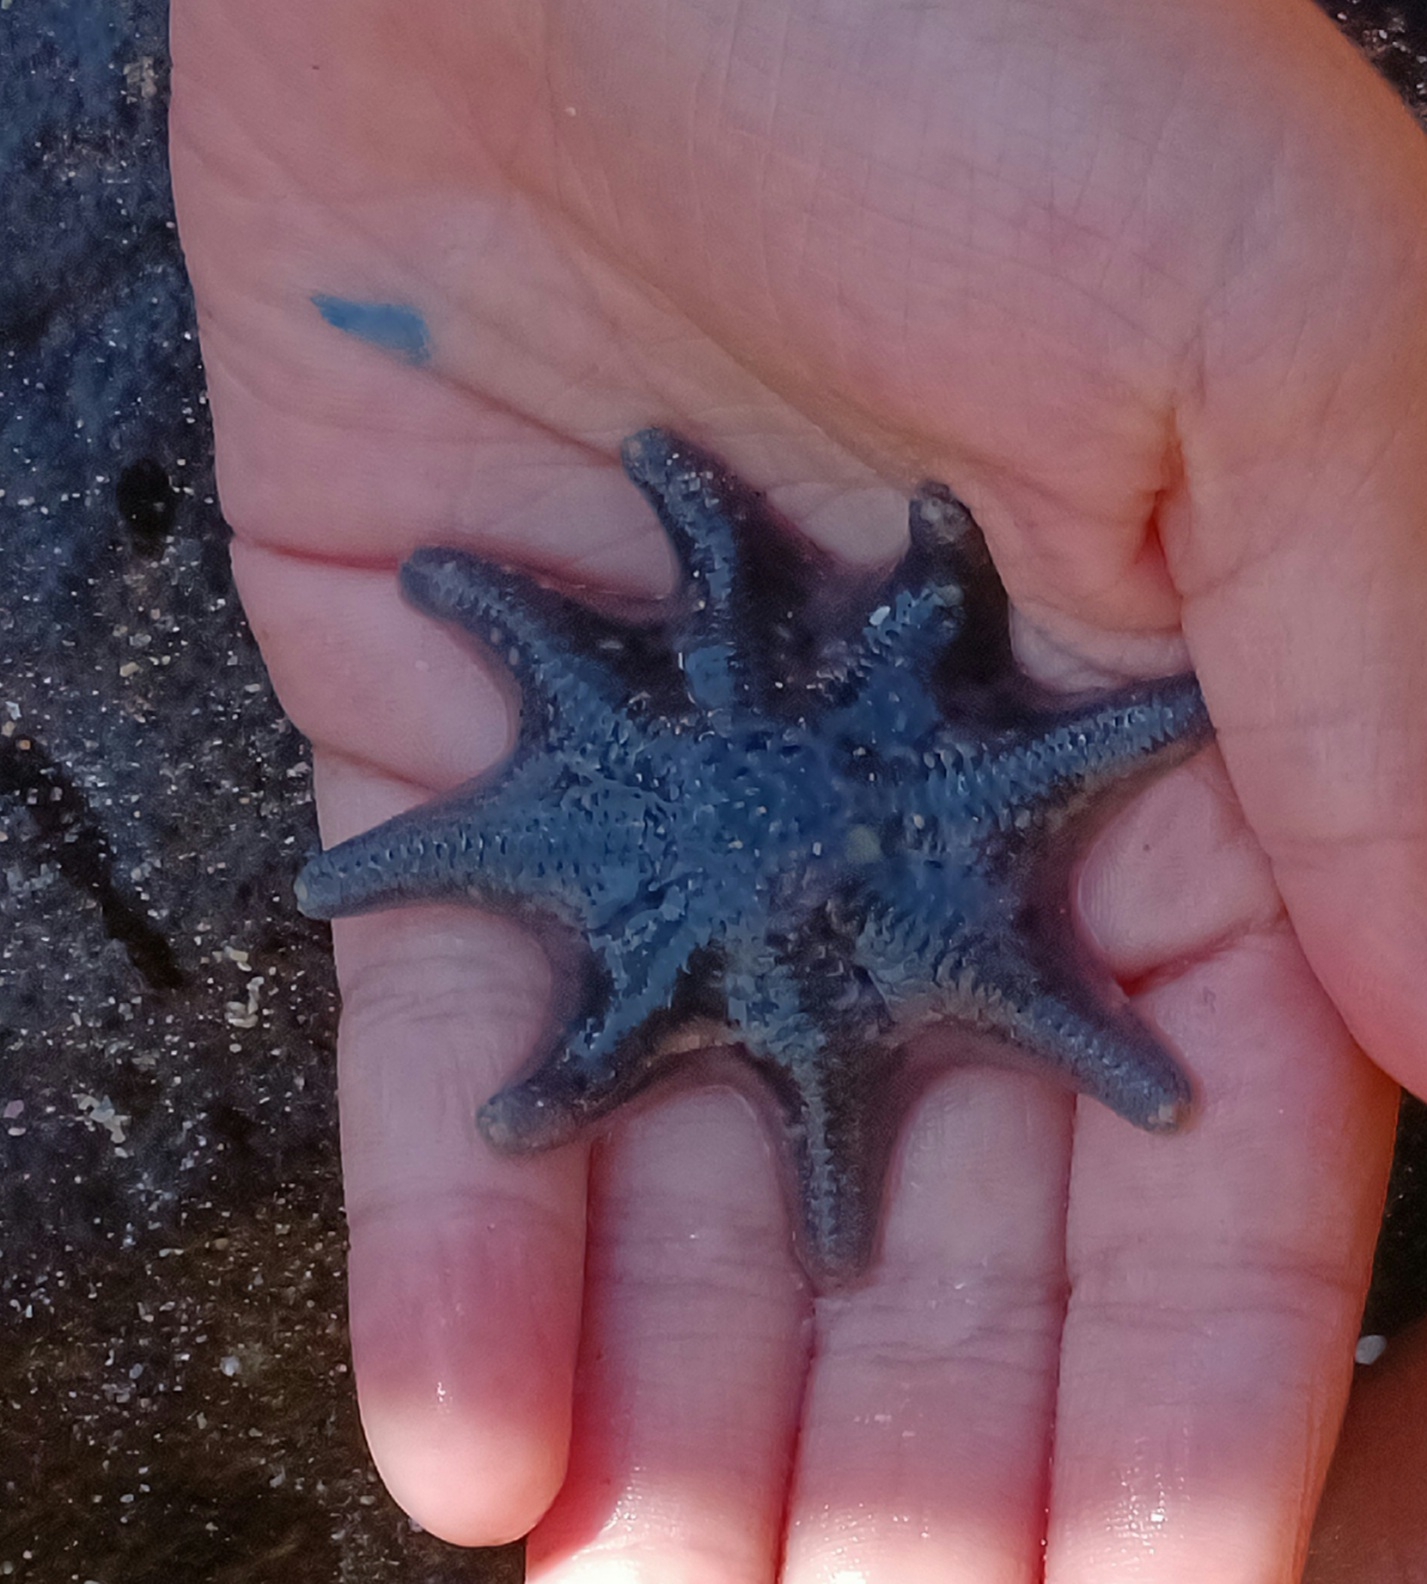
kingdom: Animalia
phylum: Echinodermata
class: Asteroidea
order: Valvatida
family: Asterinidae
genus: Meridiastra
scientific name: Meridiastra calcar
